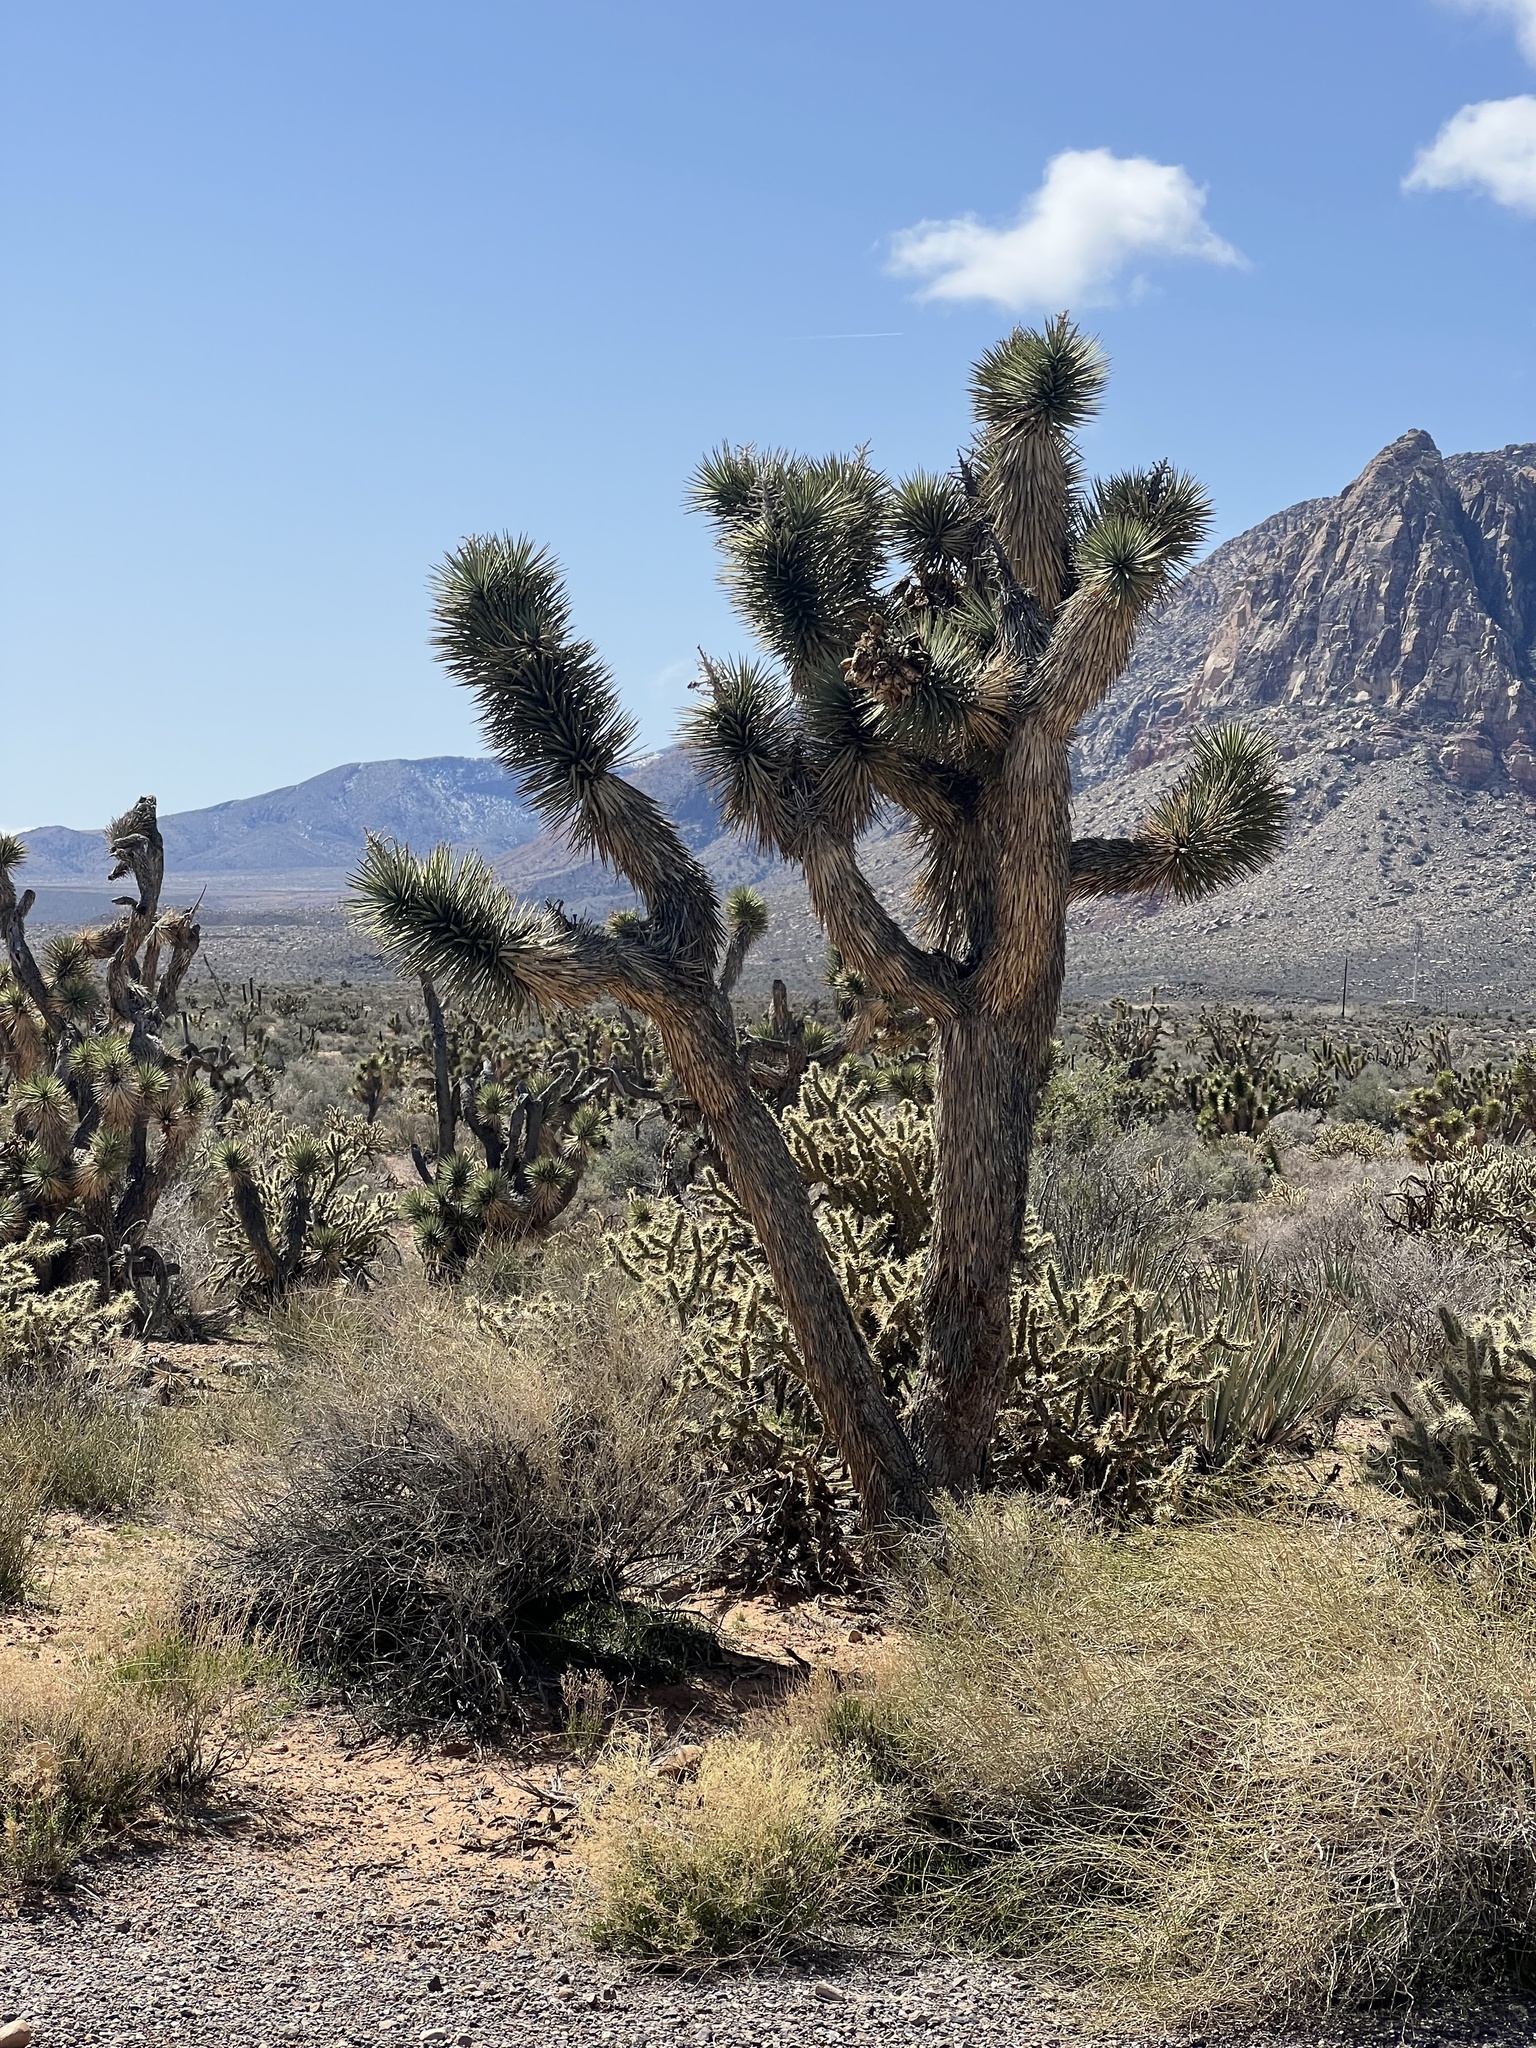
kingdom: Plantae
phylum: Tracheophyta
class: Liliopsida
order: Asparagales
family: Asparagaceae
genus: Yucca
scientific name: Yucca brevifolia
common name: Joshua tree
